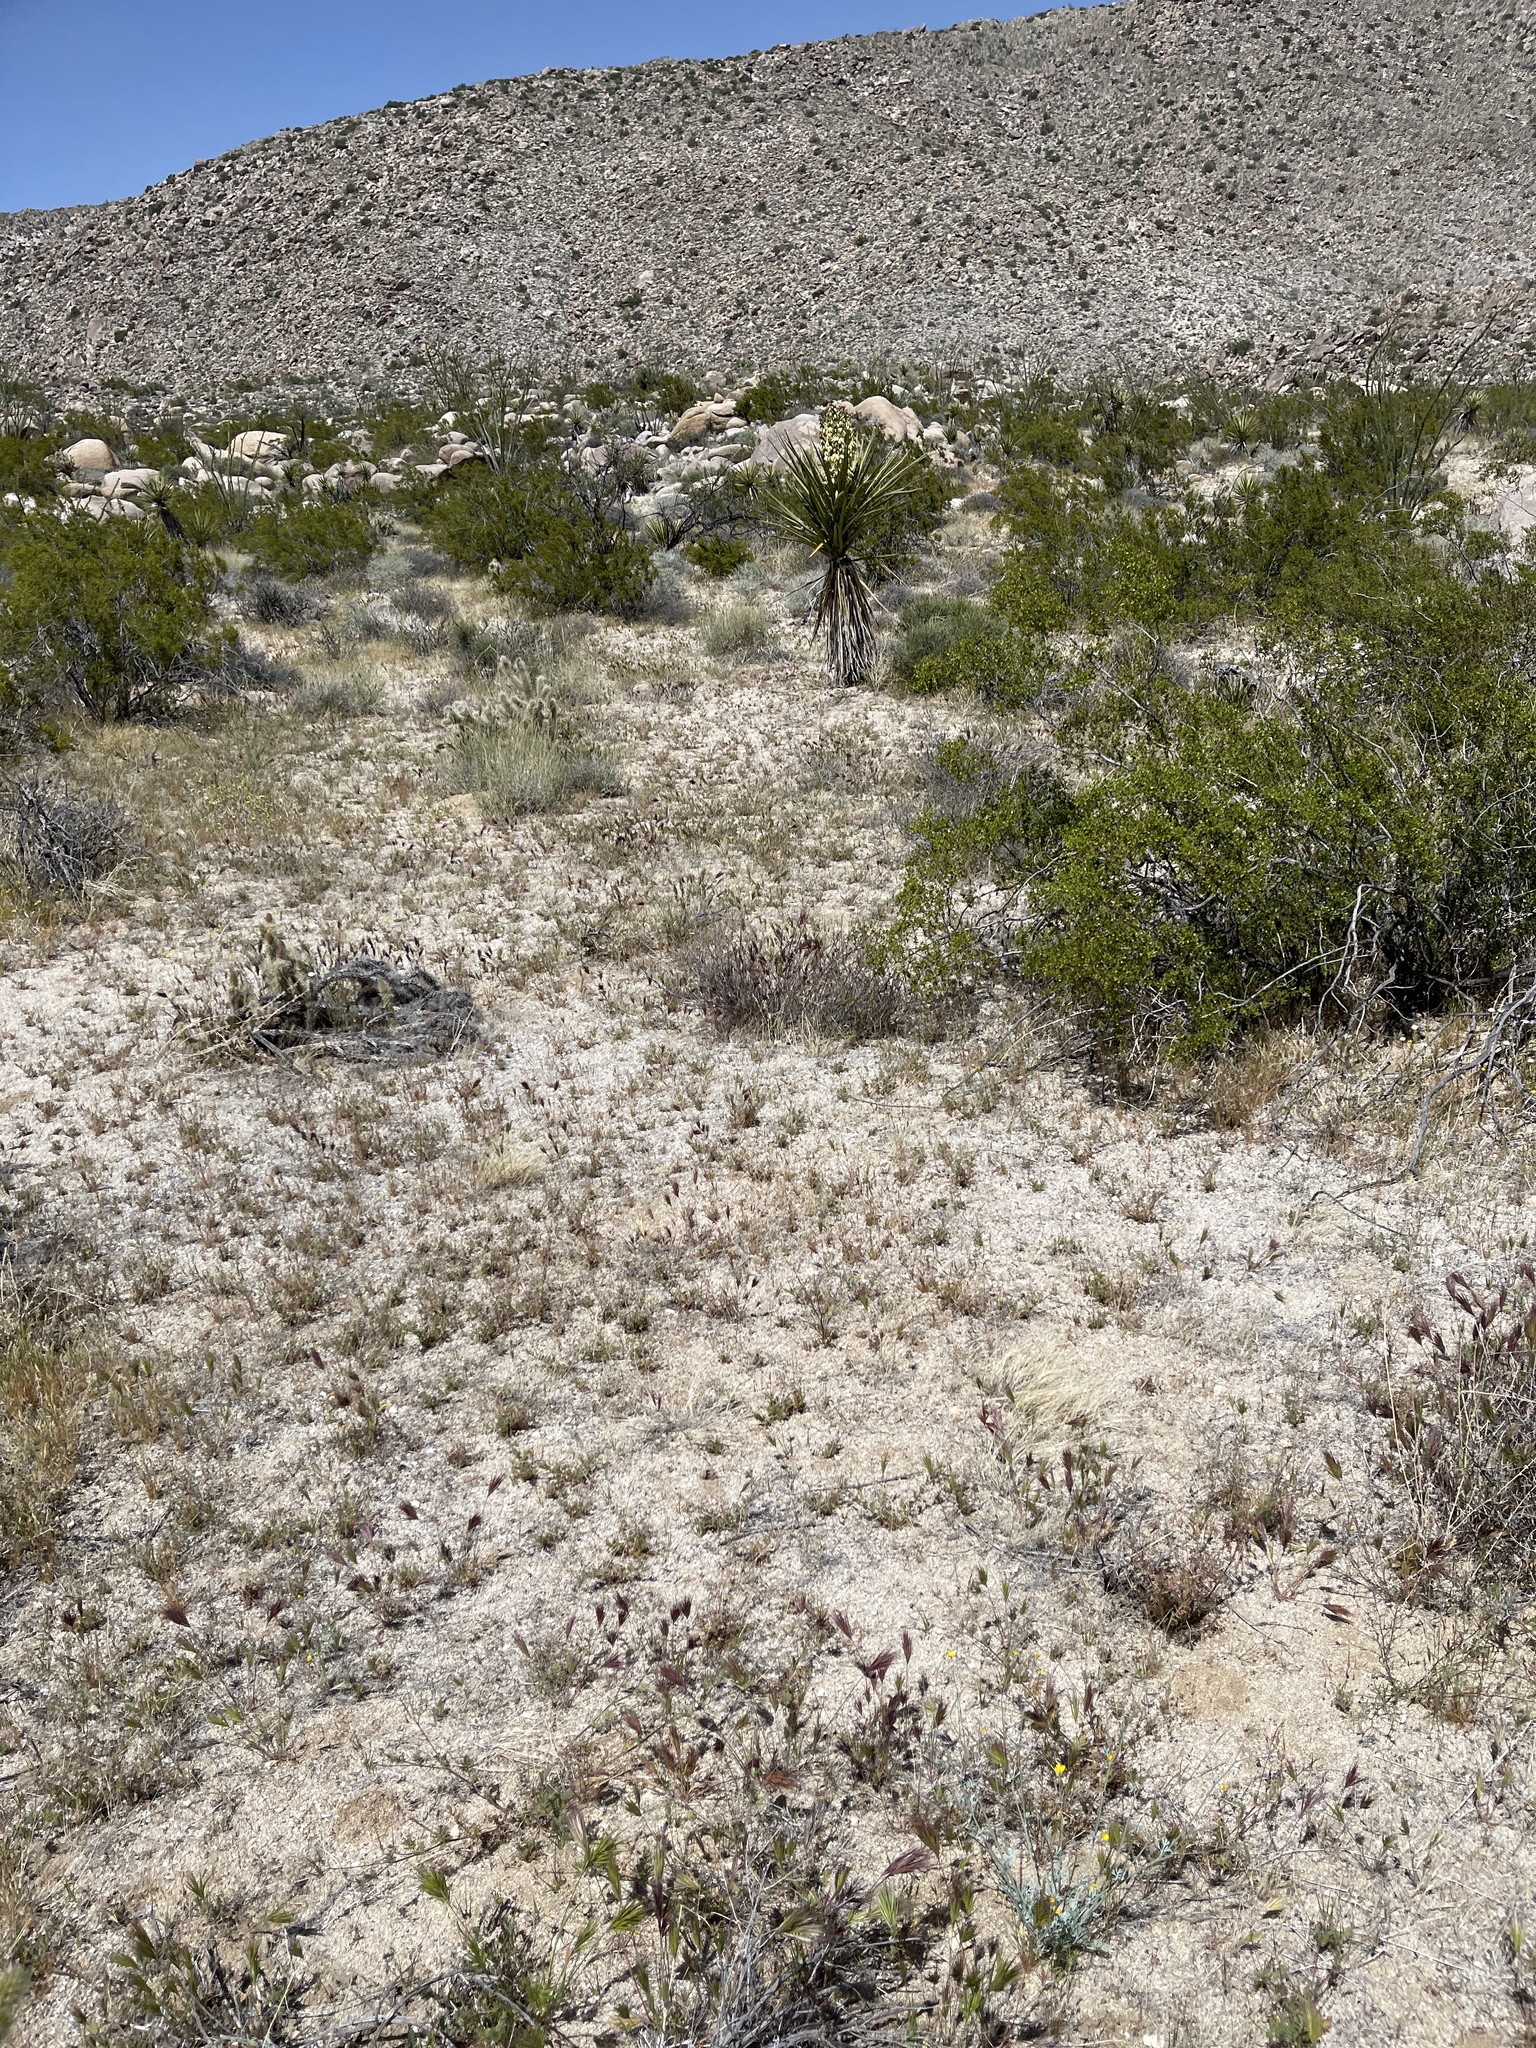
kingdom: Plantae
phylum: Tracheophyta
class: Liliopsida
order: Asparagales
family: Asparagaceae
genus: Yucca
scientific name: Yucca schidigera
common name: Mojave yucca
